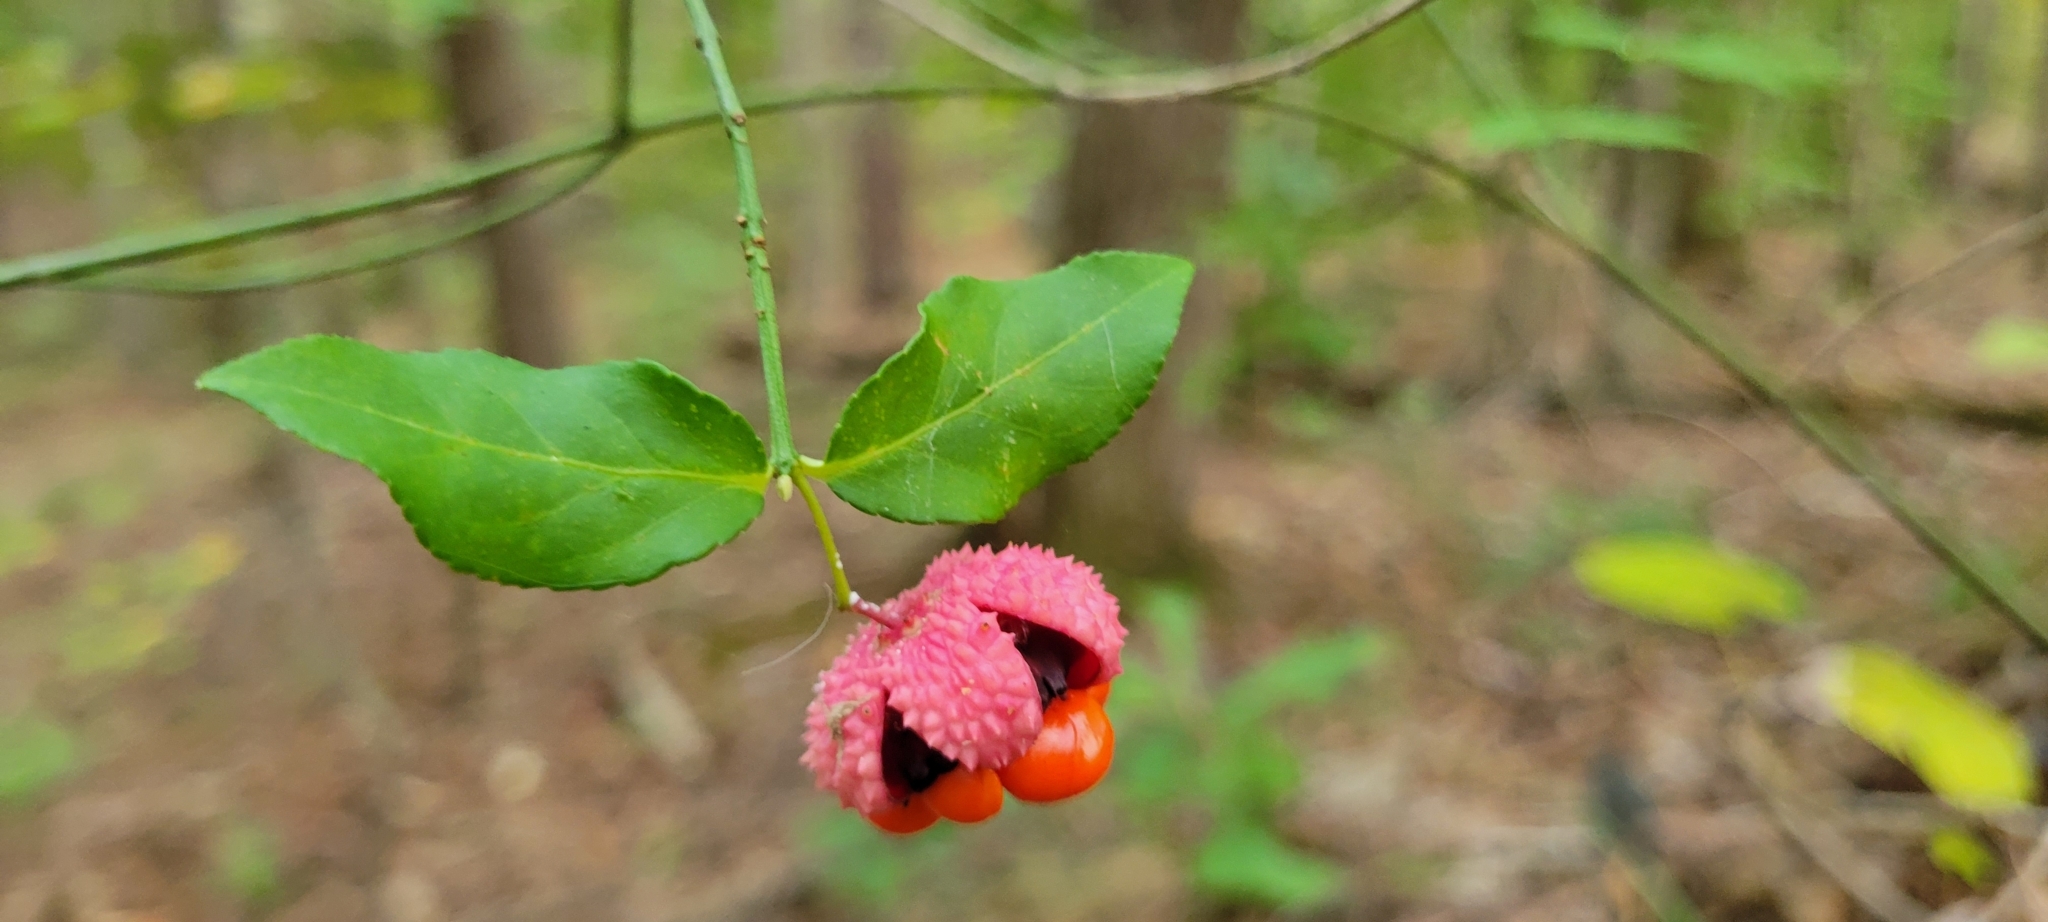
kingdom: Plantae
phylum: Tracheophyta
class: Magnoliopsida
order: Celastrales
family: Celastraceae
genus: Euonymus
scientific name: Euonymus americanus
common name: Bursting-heart
